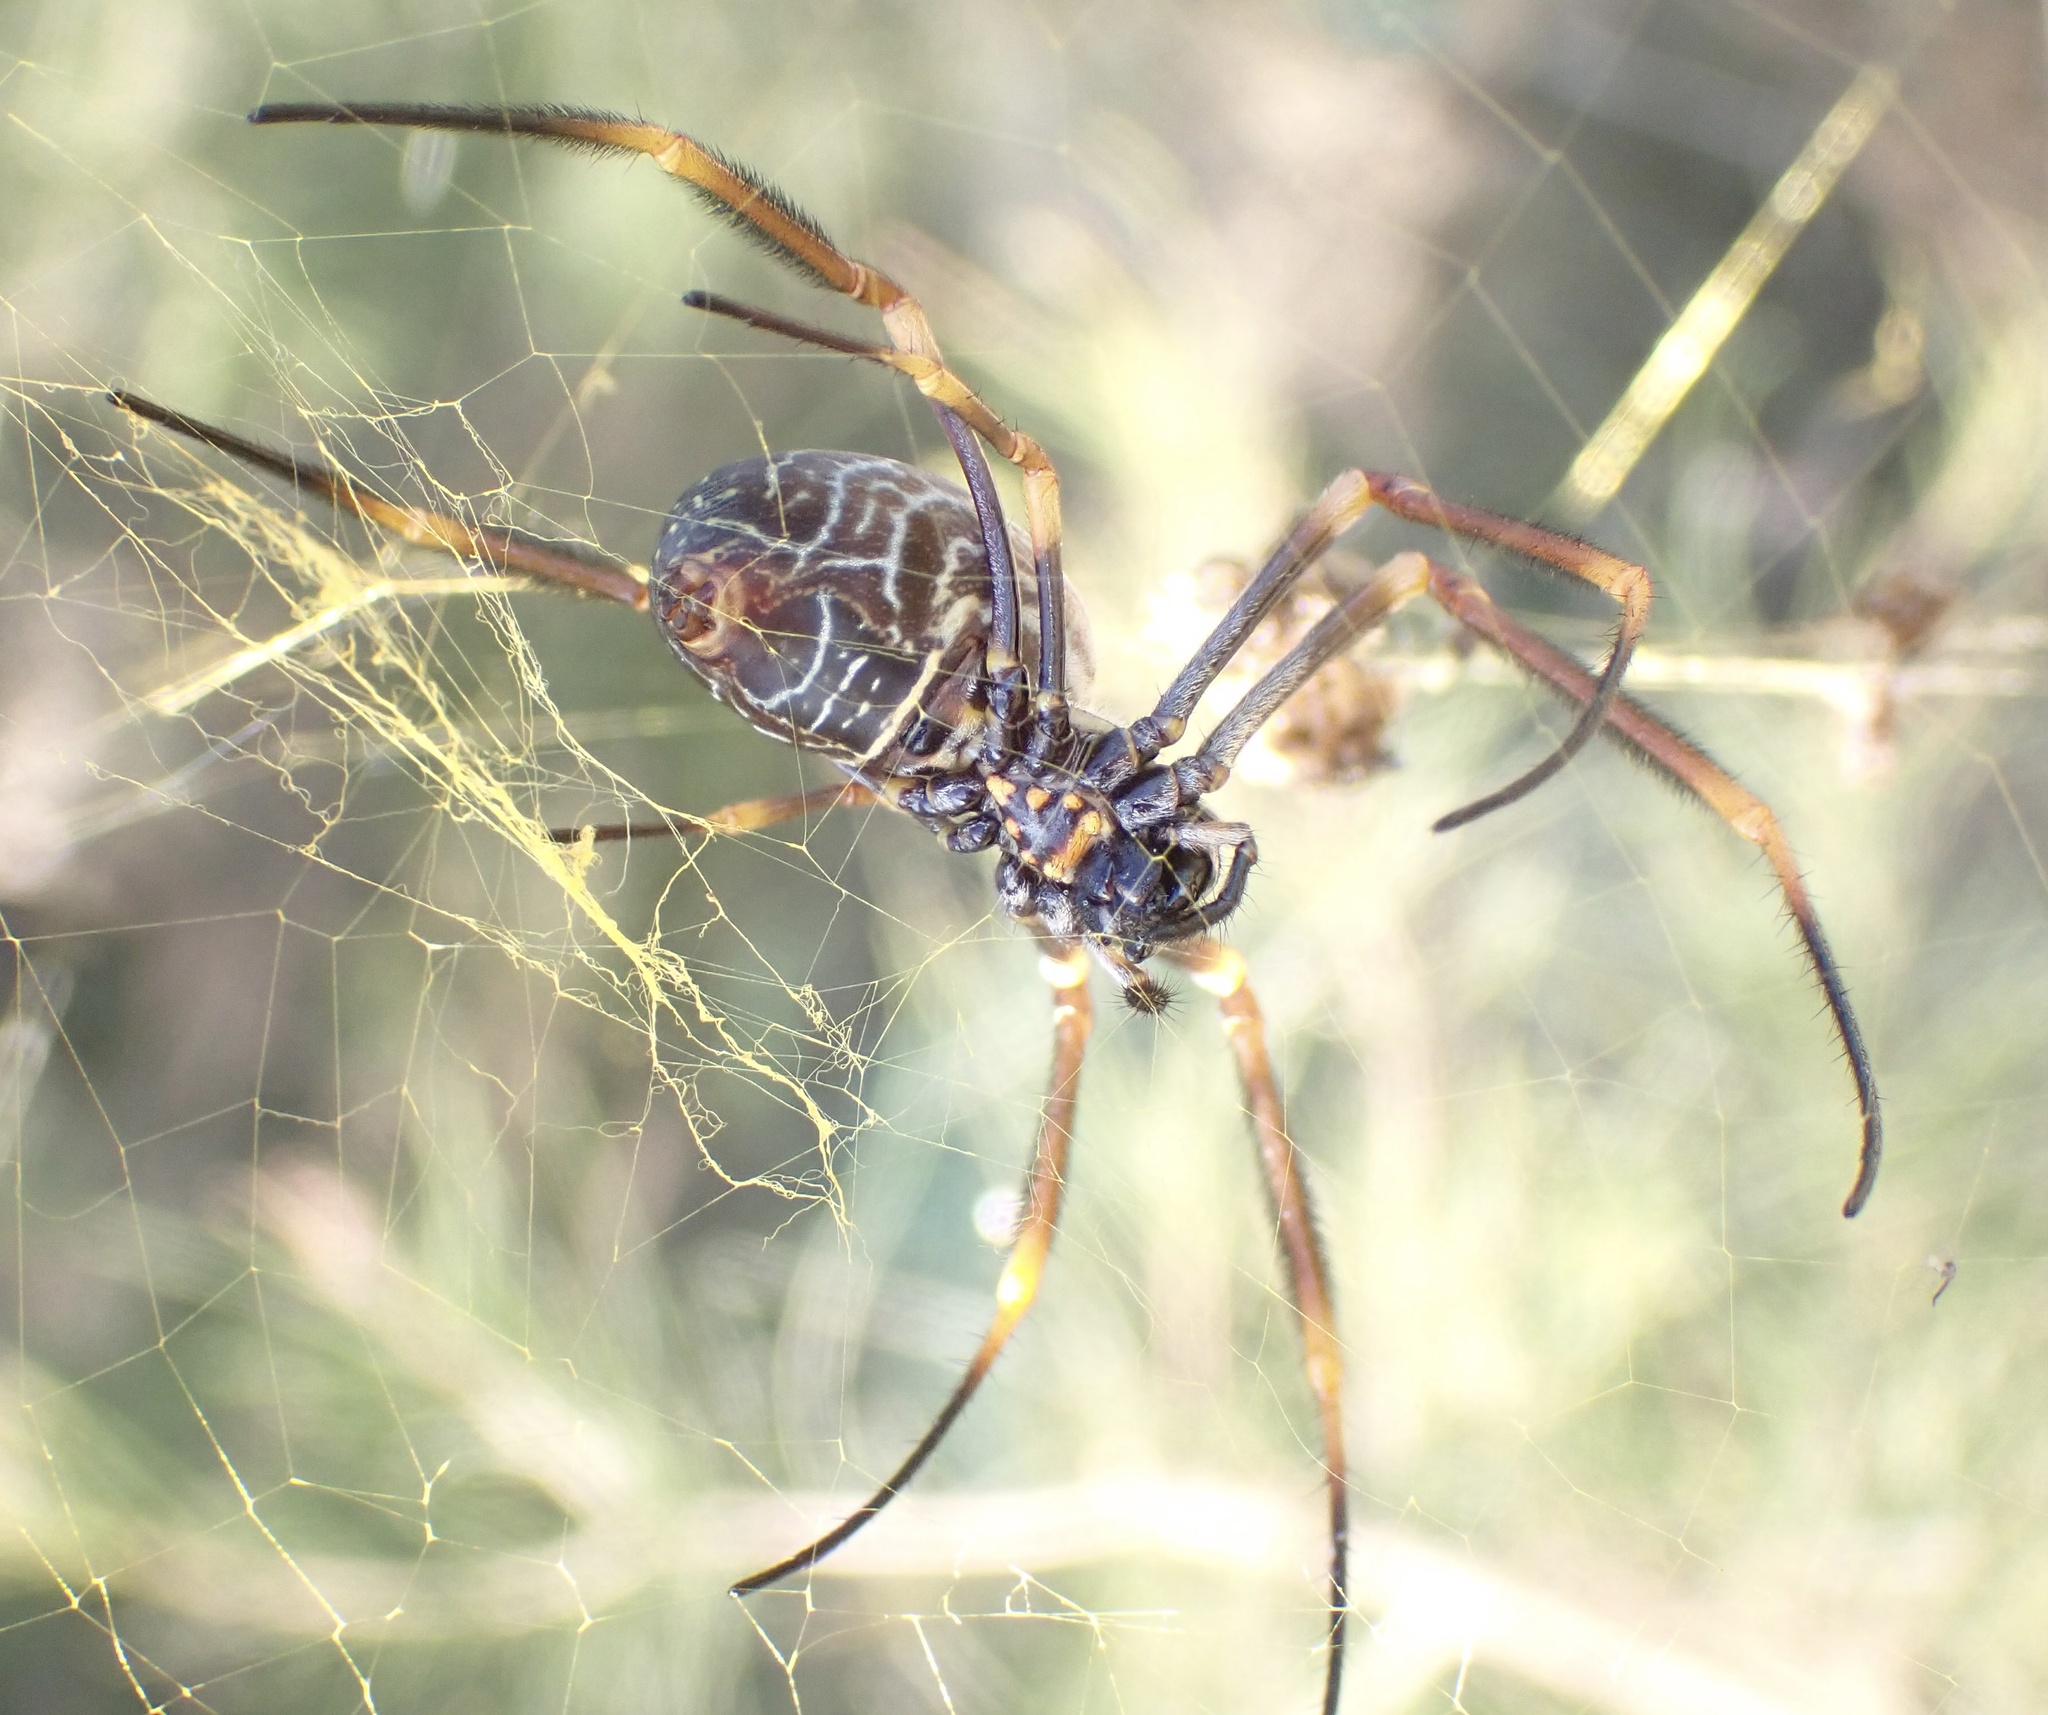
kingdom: Animalia
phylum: Arthropoda
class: Arachnida
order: Araneae
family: Araneidae
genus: Trichonephila
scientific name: Trichonephila plumipes
